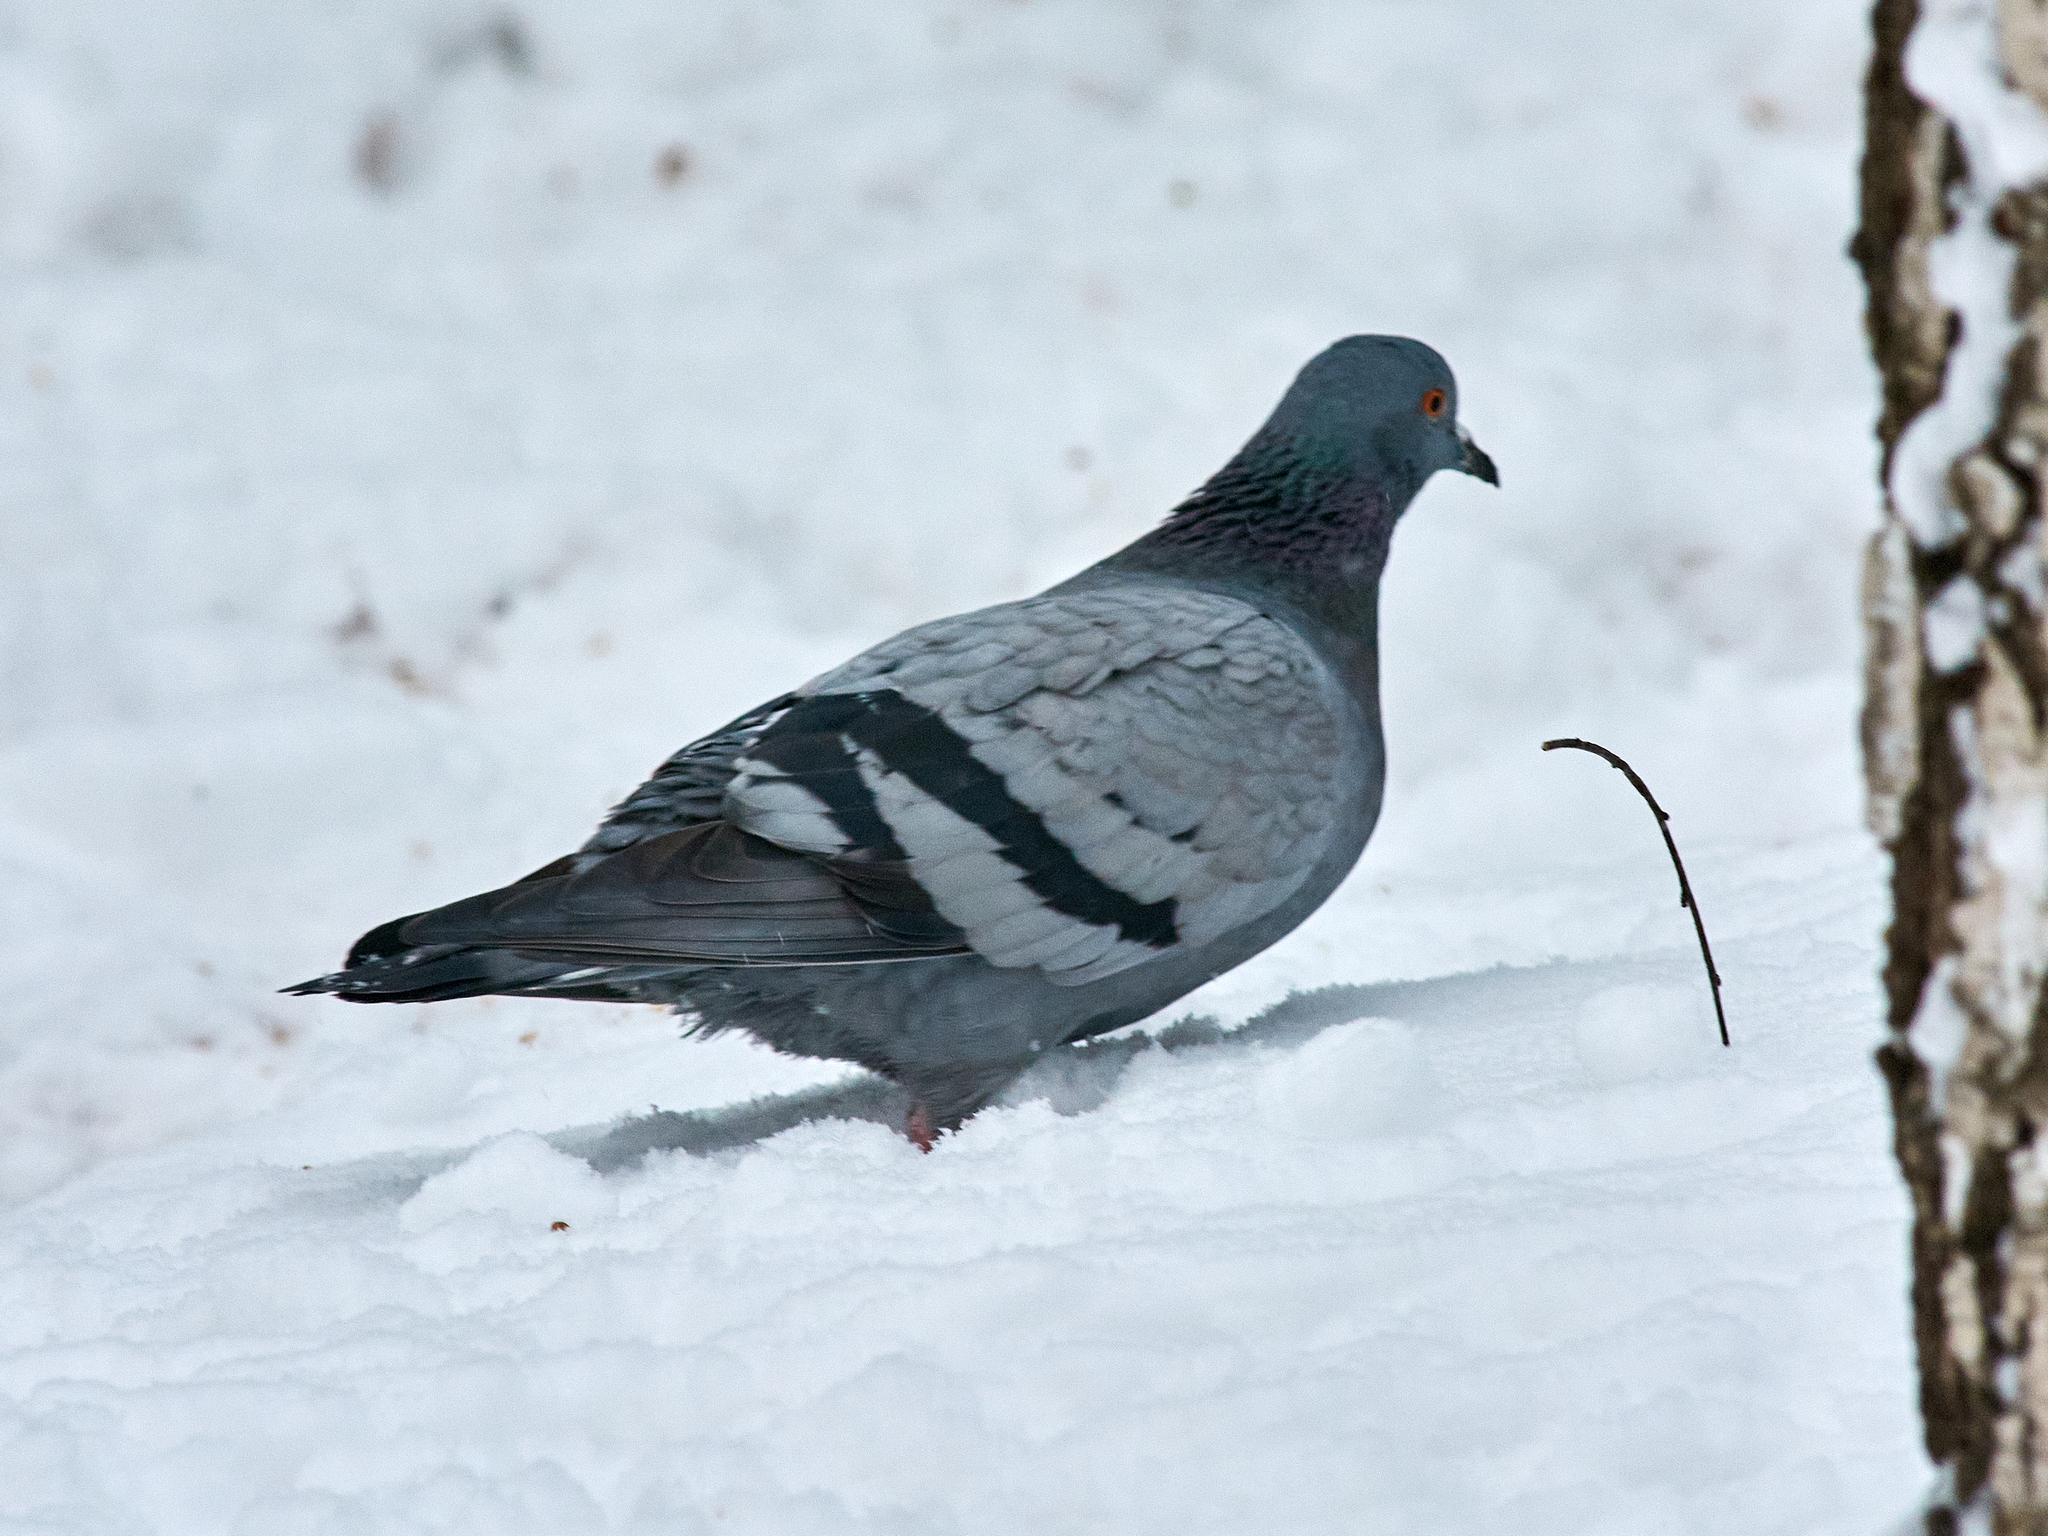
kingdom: Animalia
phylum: Chordata
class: Aves
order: Columbiformes
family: Columbidae
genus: Columba
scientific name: Columba livia
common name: Rock pigeon
